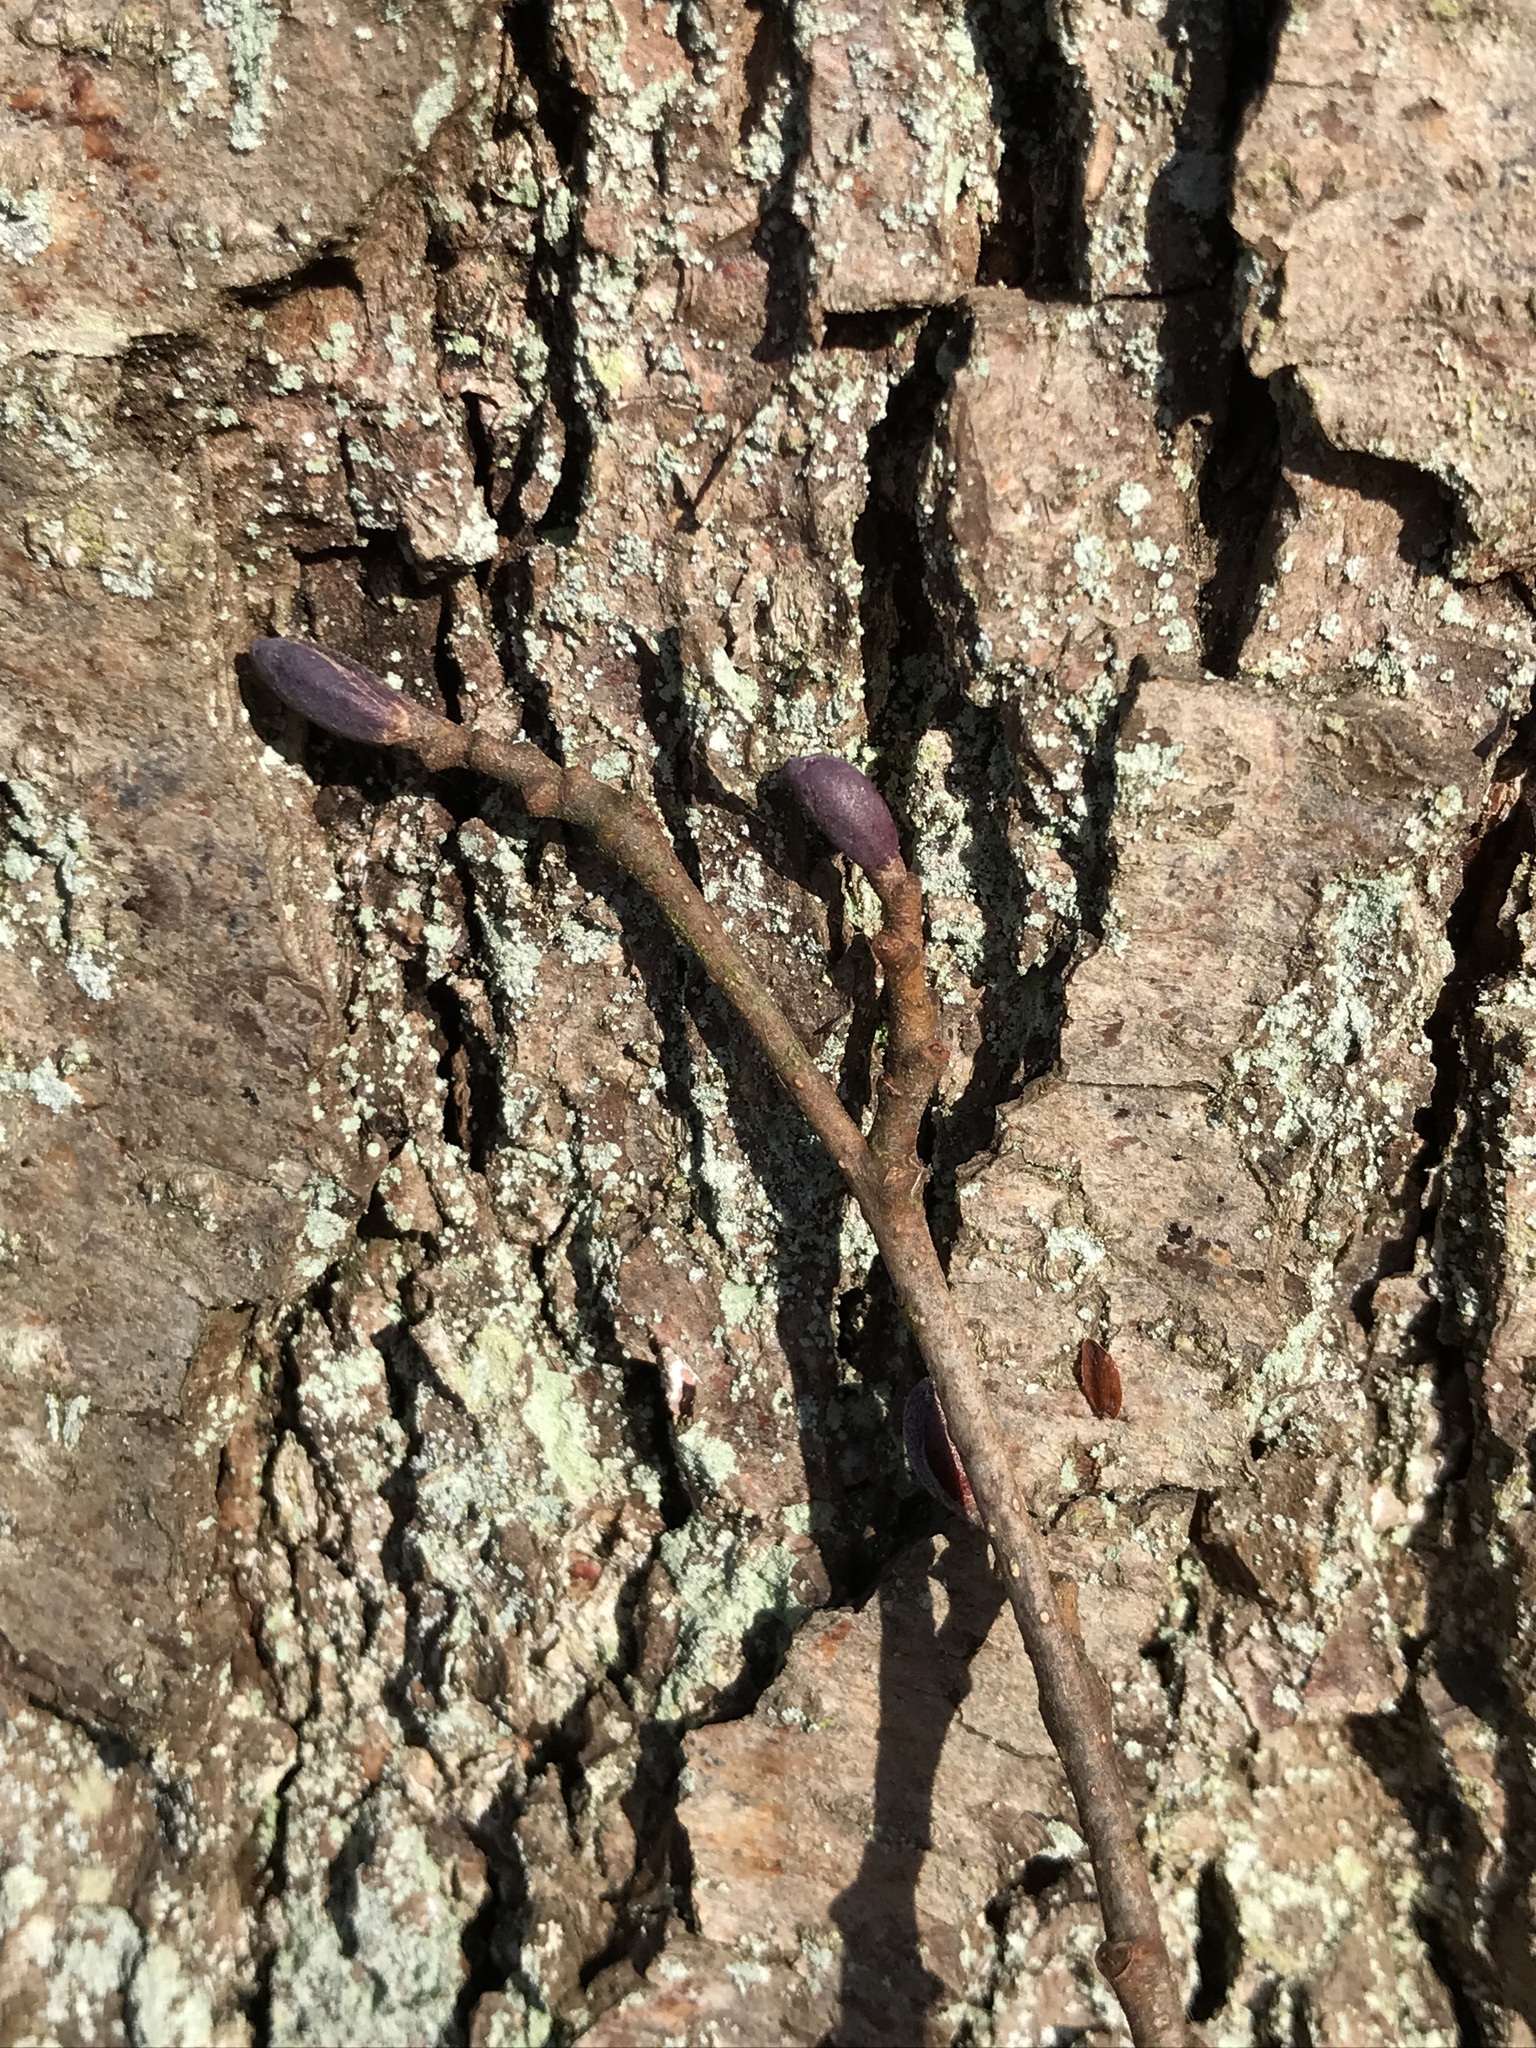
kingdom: Plantae
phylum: Tracheophyta
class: Magnoliopsida
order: Fagales
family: Betulaceae
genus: Alnus
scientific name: Alnus glutinosa
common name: Black alder
